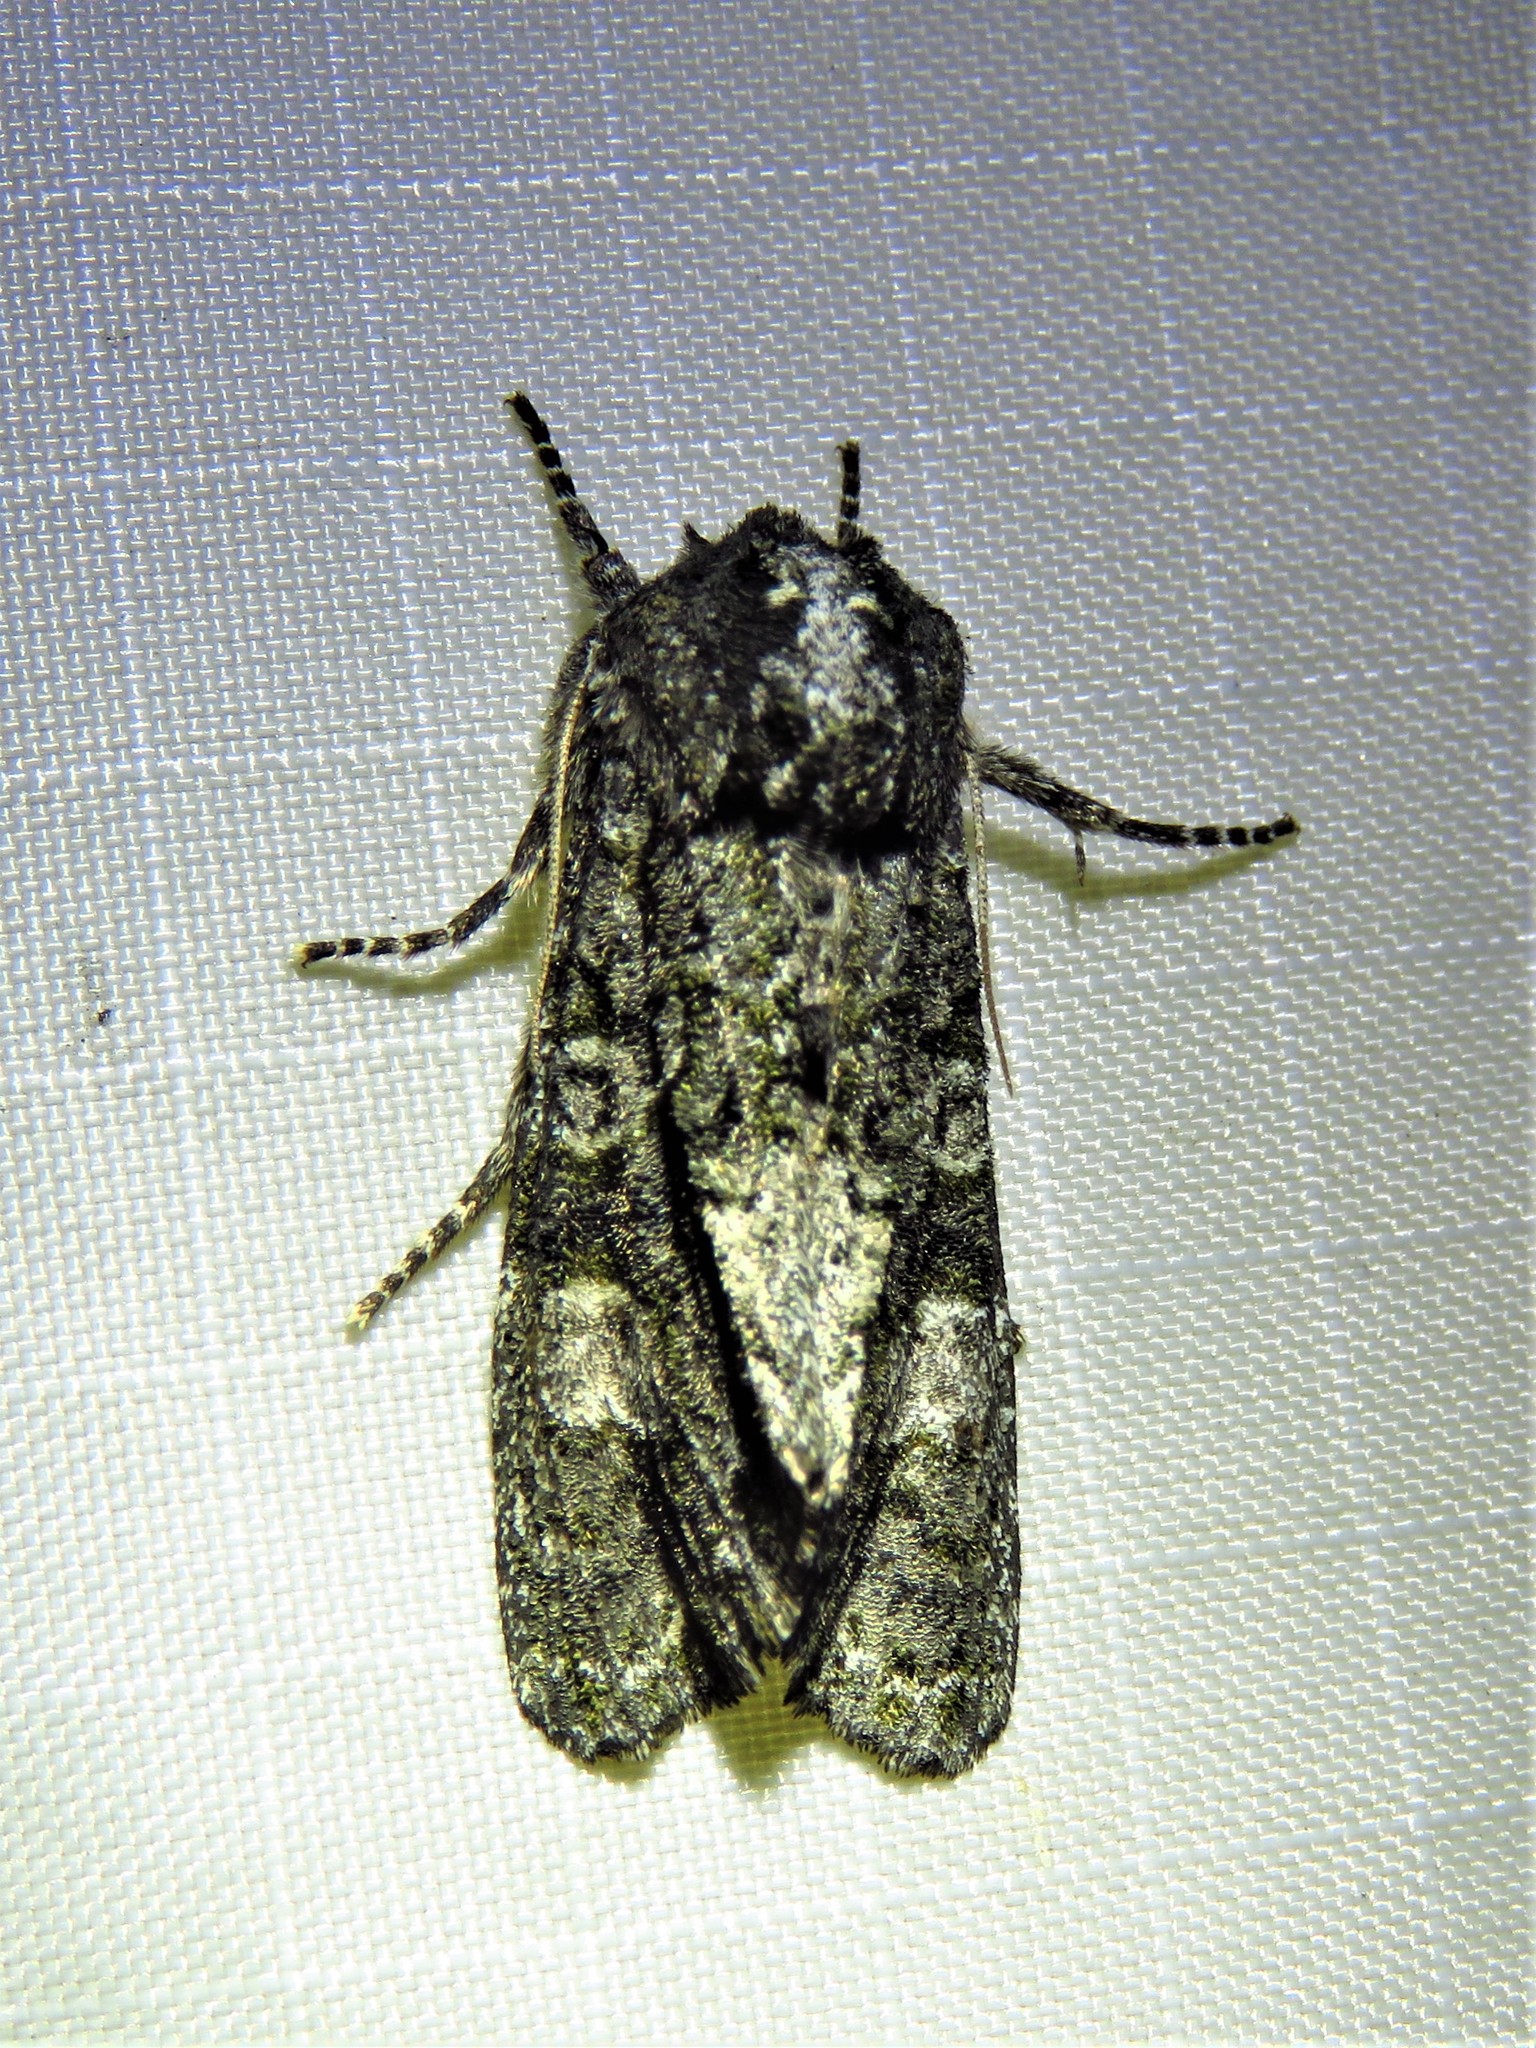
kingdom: Animalia
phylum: Arthropoda
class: Insecta
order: Lepidoptera
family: Noctuidae
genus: Psaphida
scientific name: Psaphida grotei
